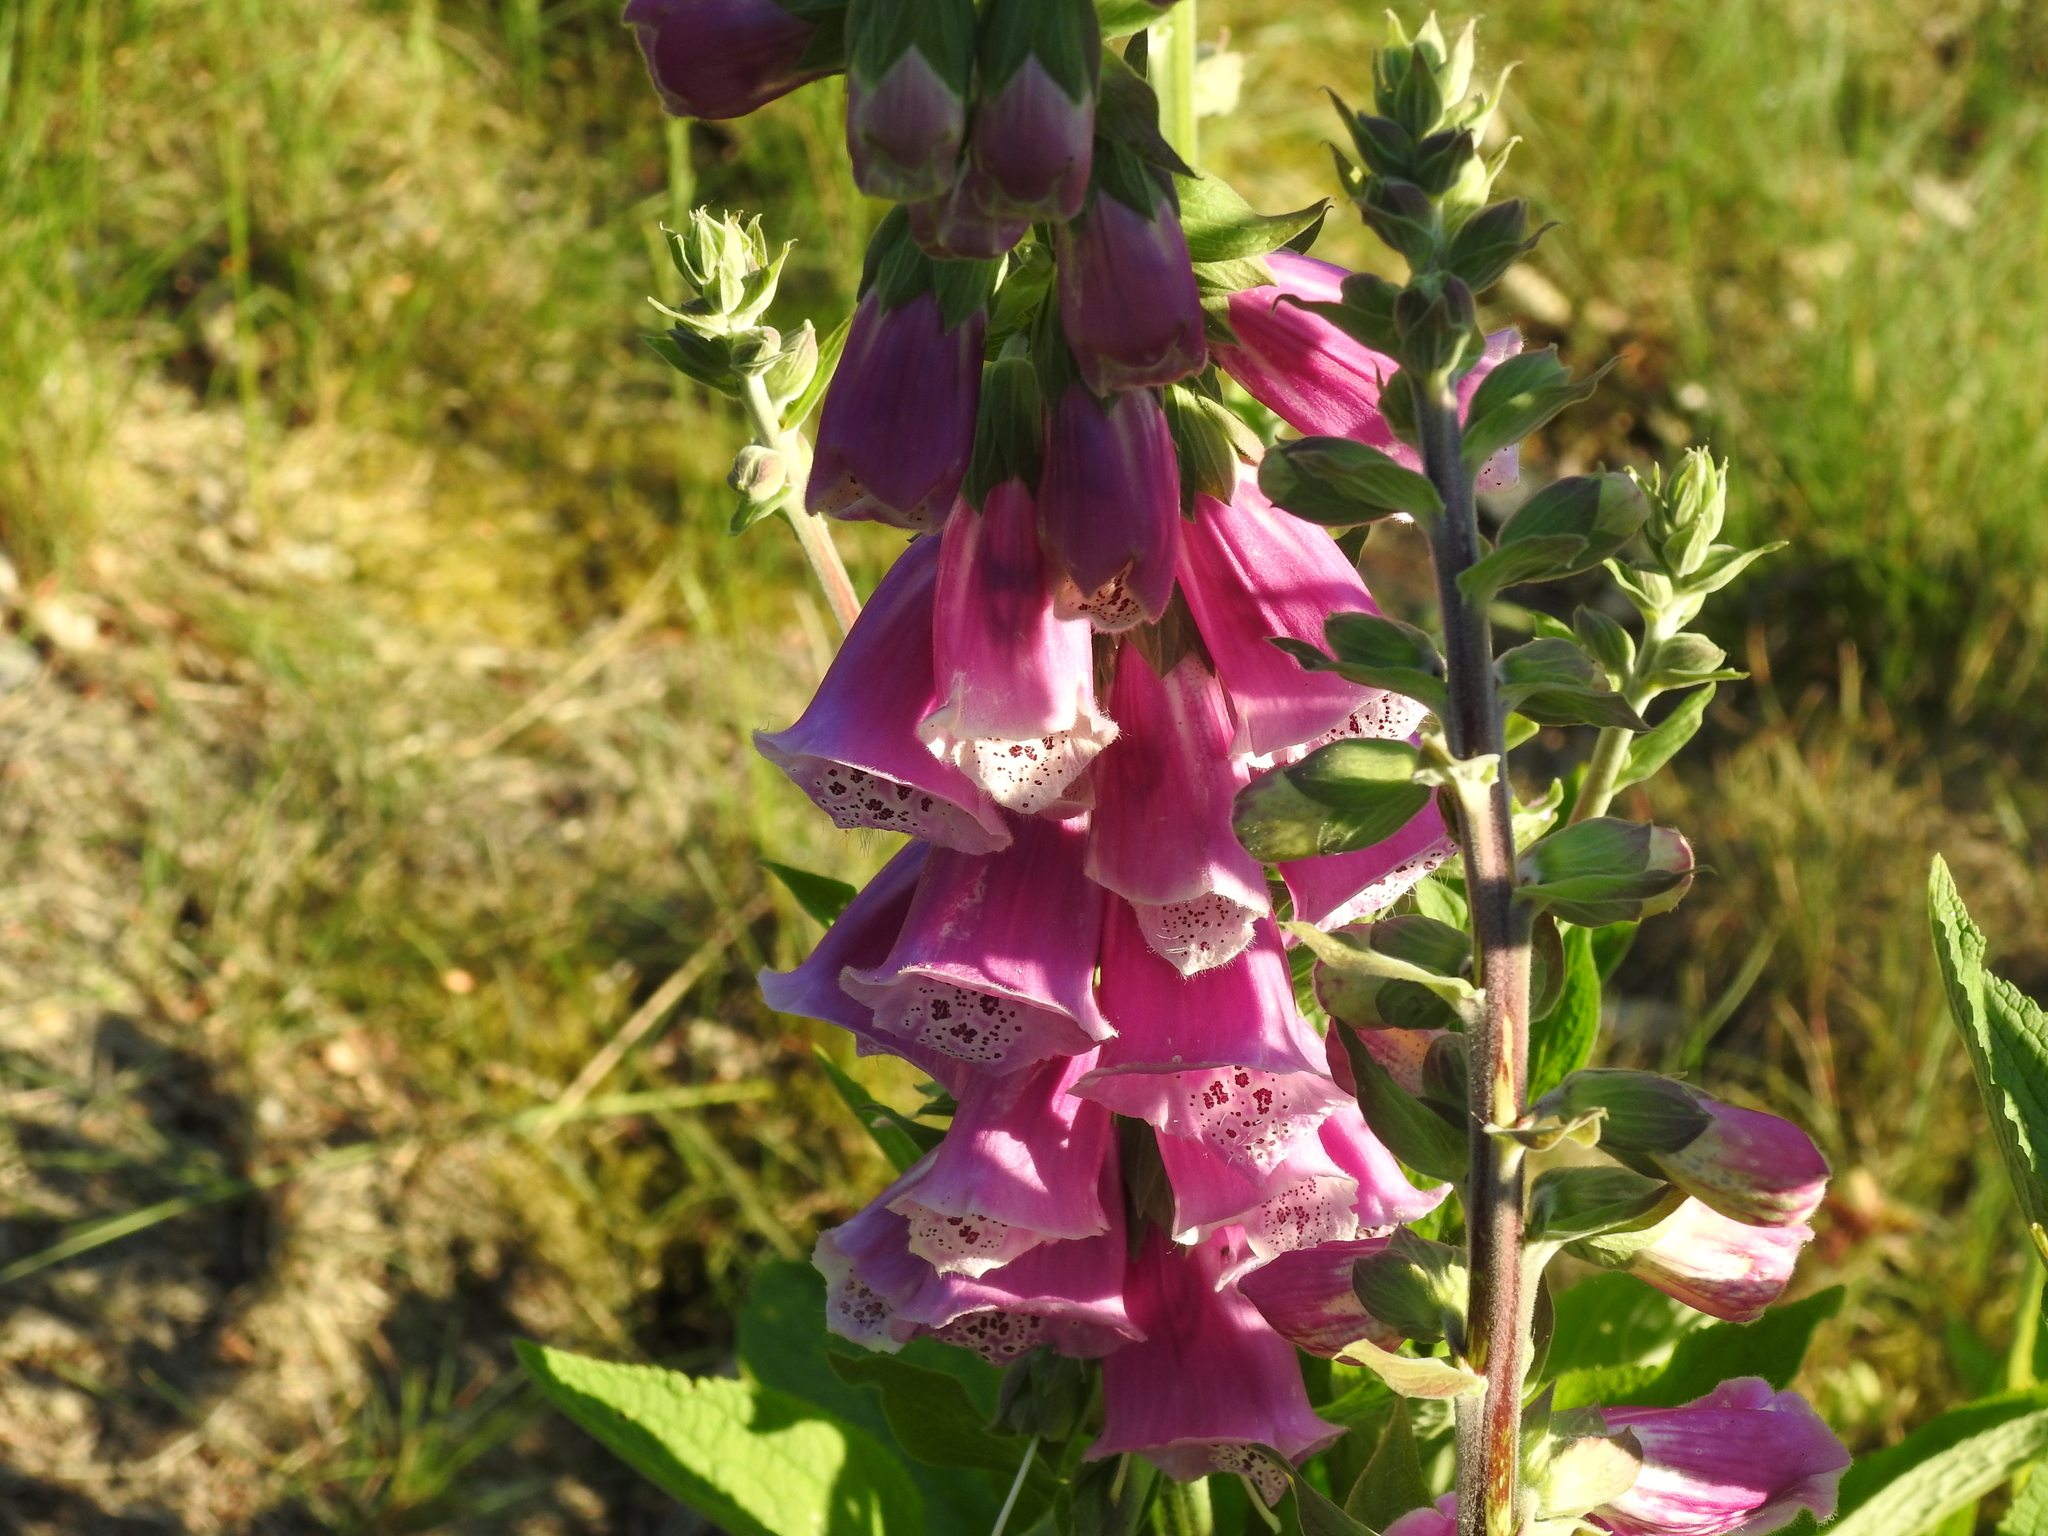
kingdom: Plantae
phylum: Tracheophyta
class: Magnoliopsida
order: Lamiales
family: Plantaginaceae
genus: Digitalis
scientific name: Digitalis purpurea
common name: Foxglove
